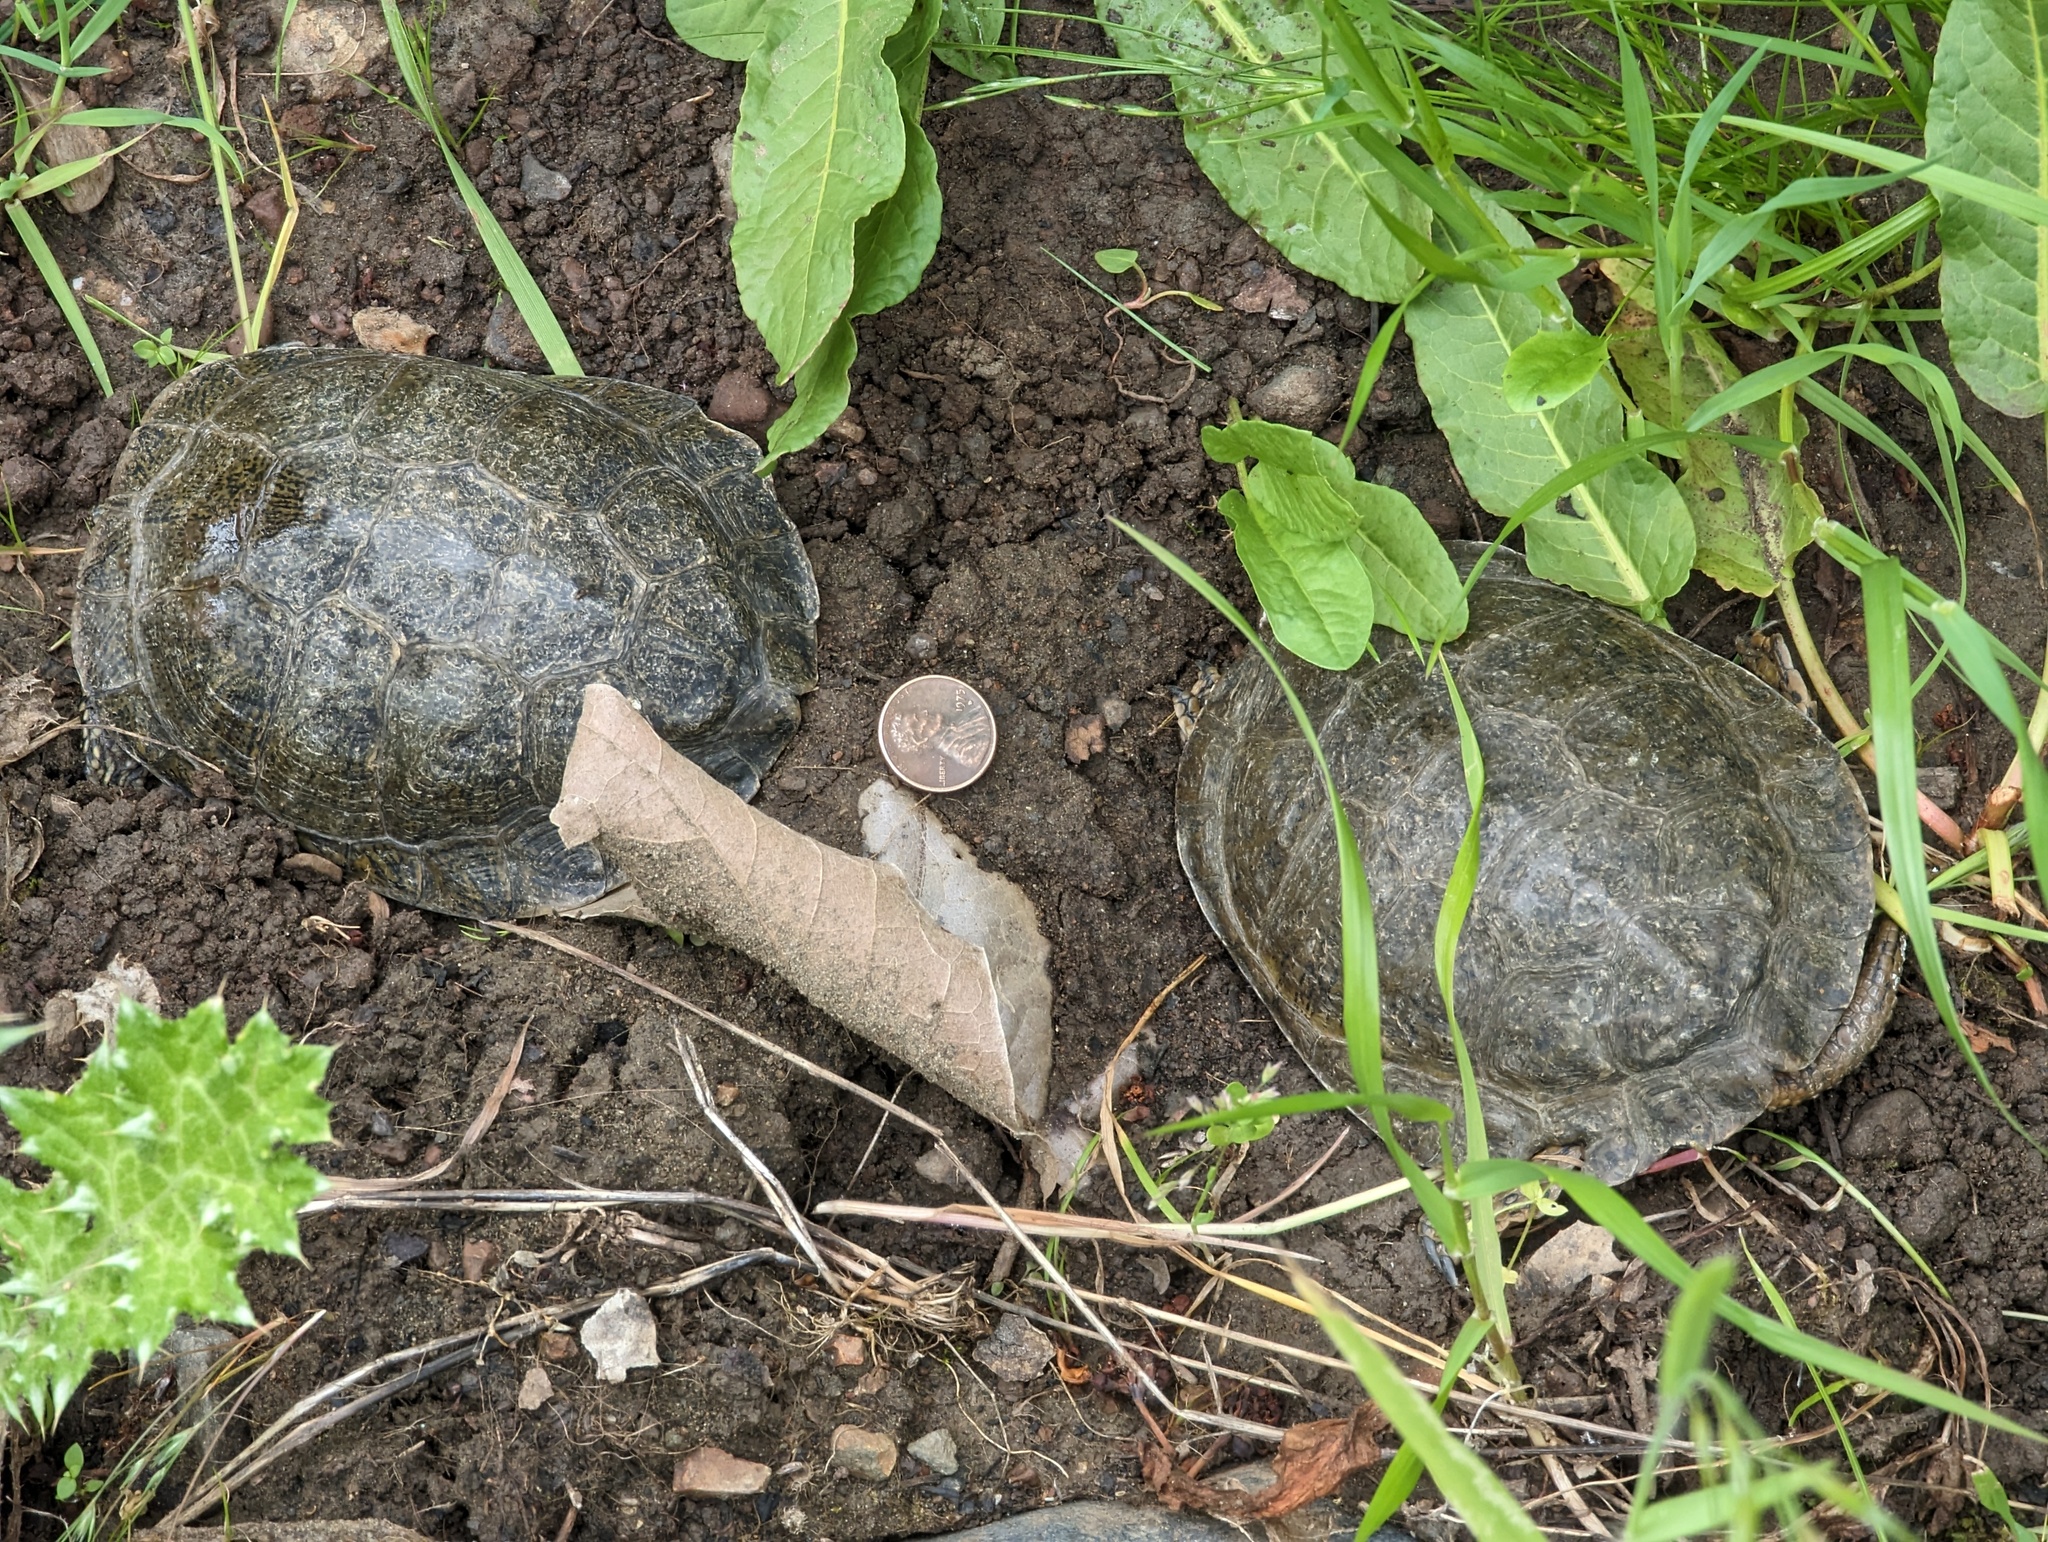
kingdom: Animalia
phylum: Chordata
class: Testudines
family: Emydidae
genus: Actinemys
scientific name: Actinemys marmorata
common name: Western pond turtle
